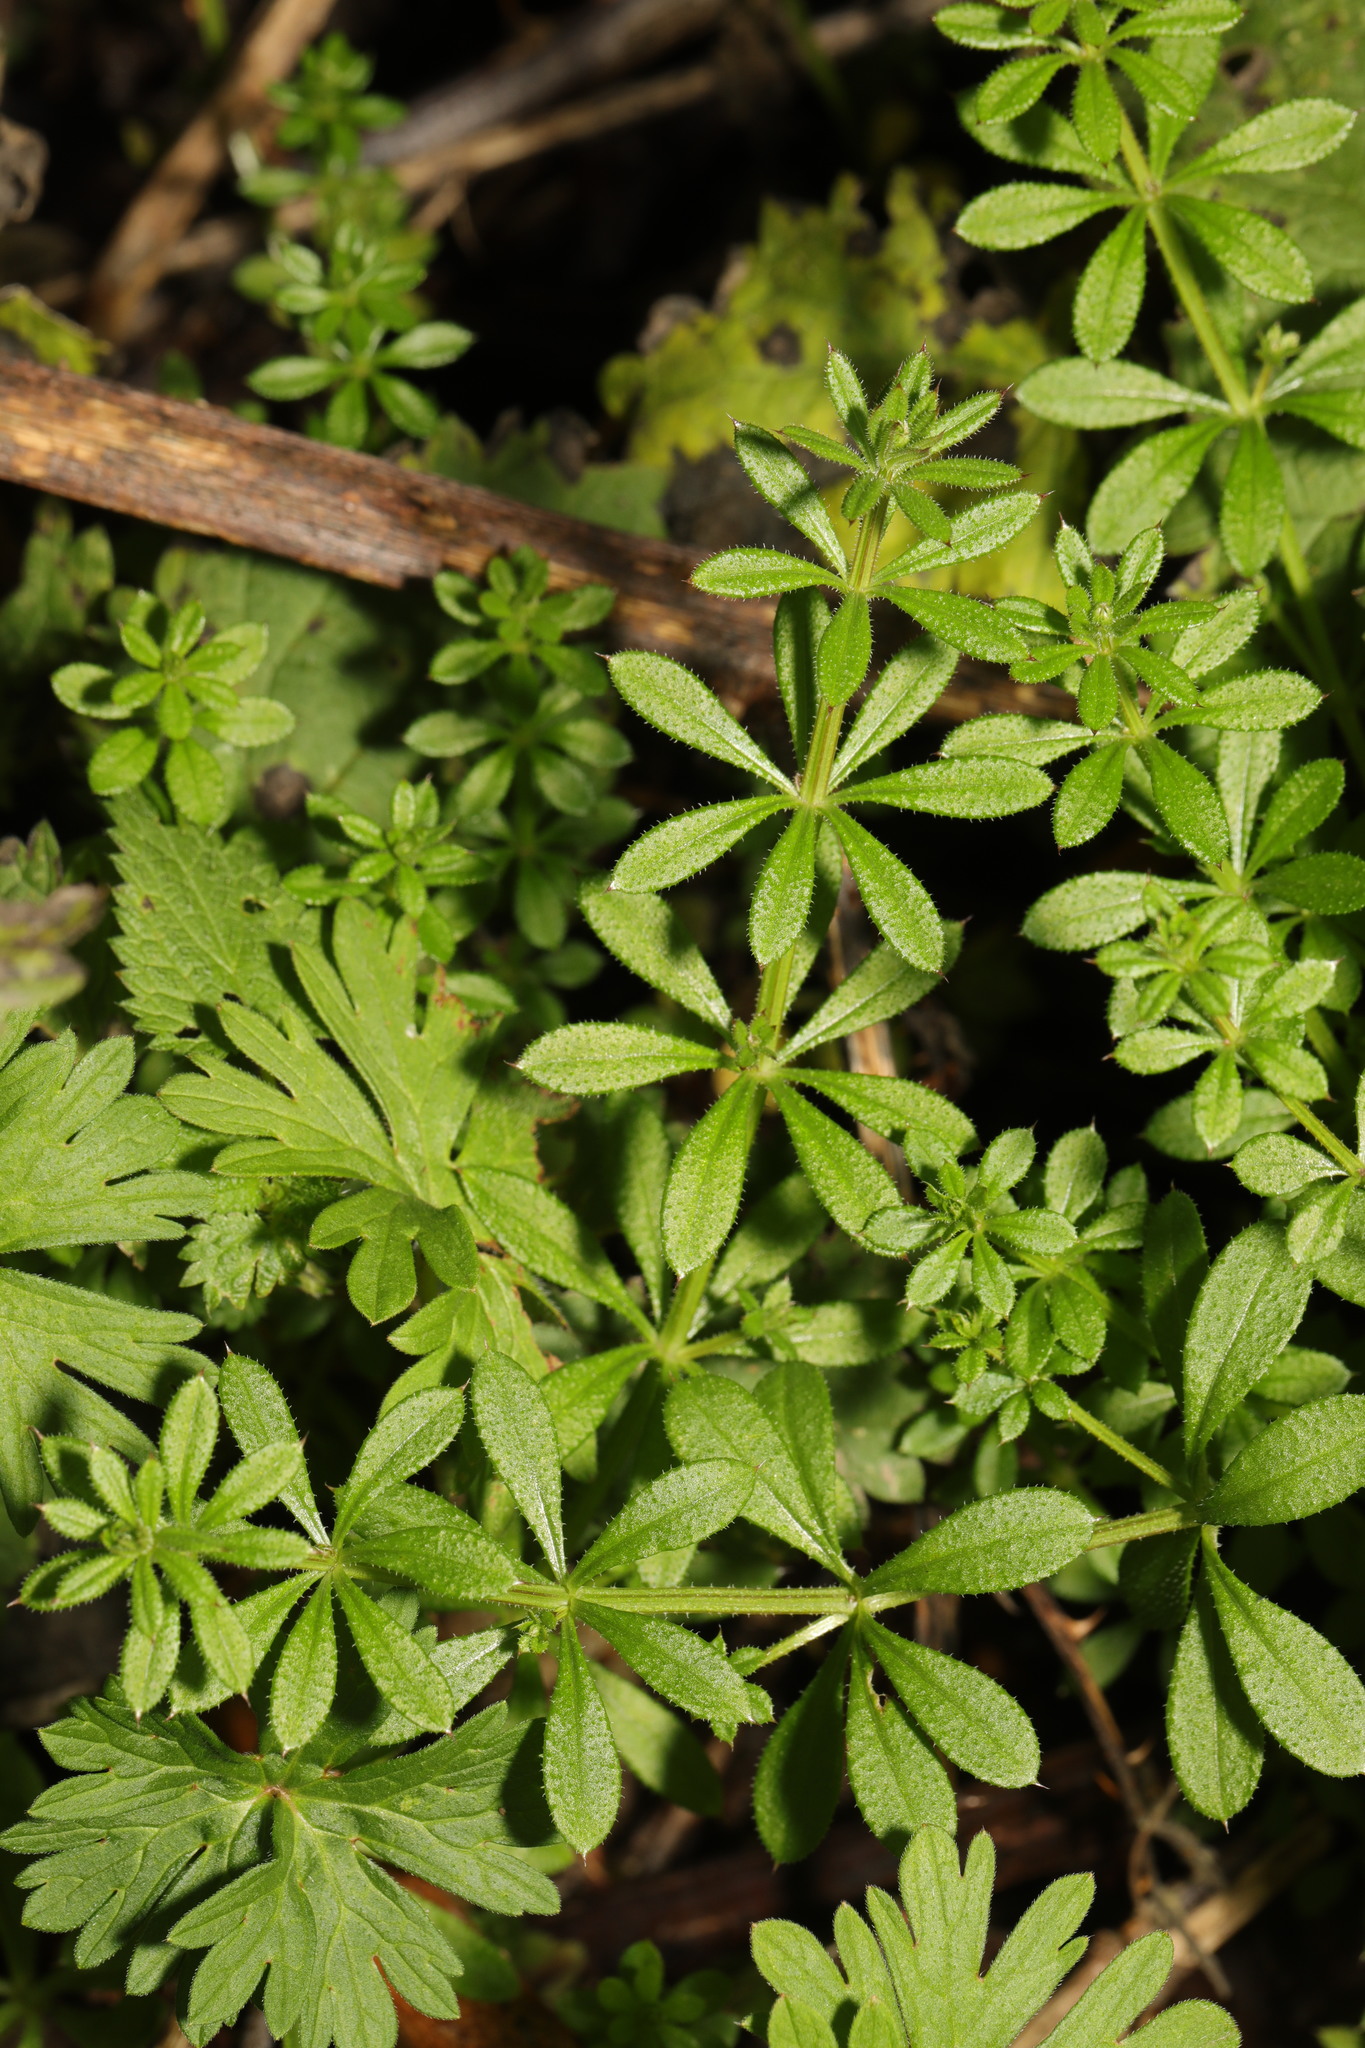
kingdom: Plantae
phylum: Tracheophyta
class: Magnoliopsida
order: Gentianales
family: Rubiaceae
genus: Galium
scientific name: Galium aparine
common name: Cleavers
